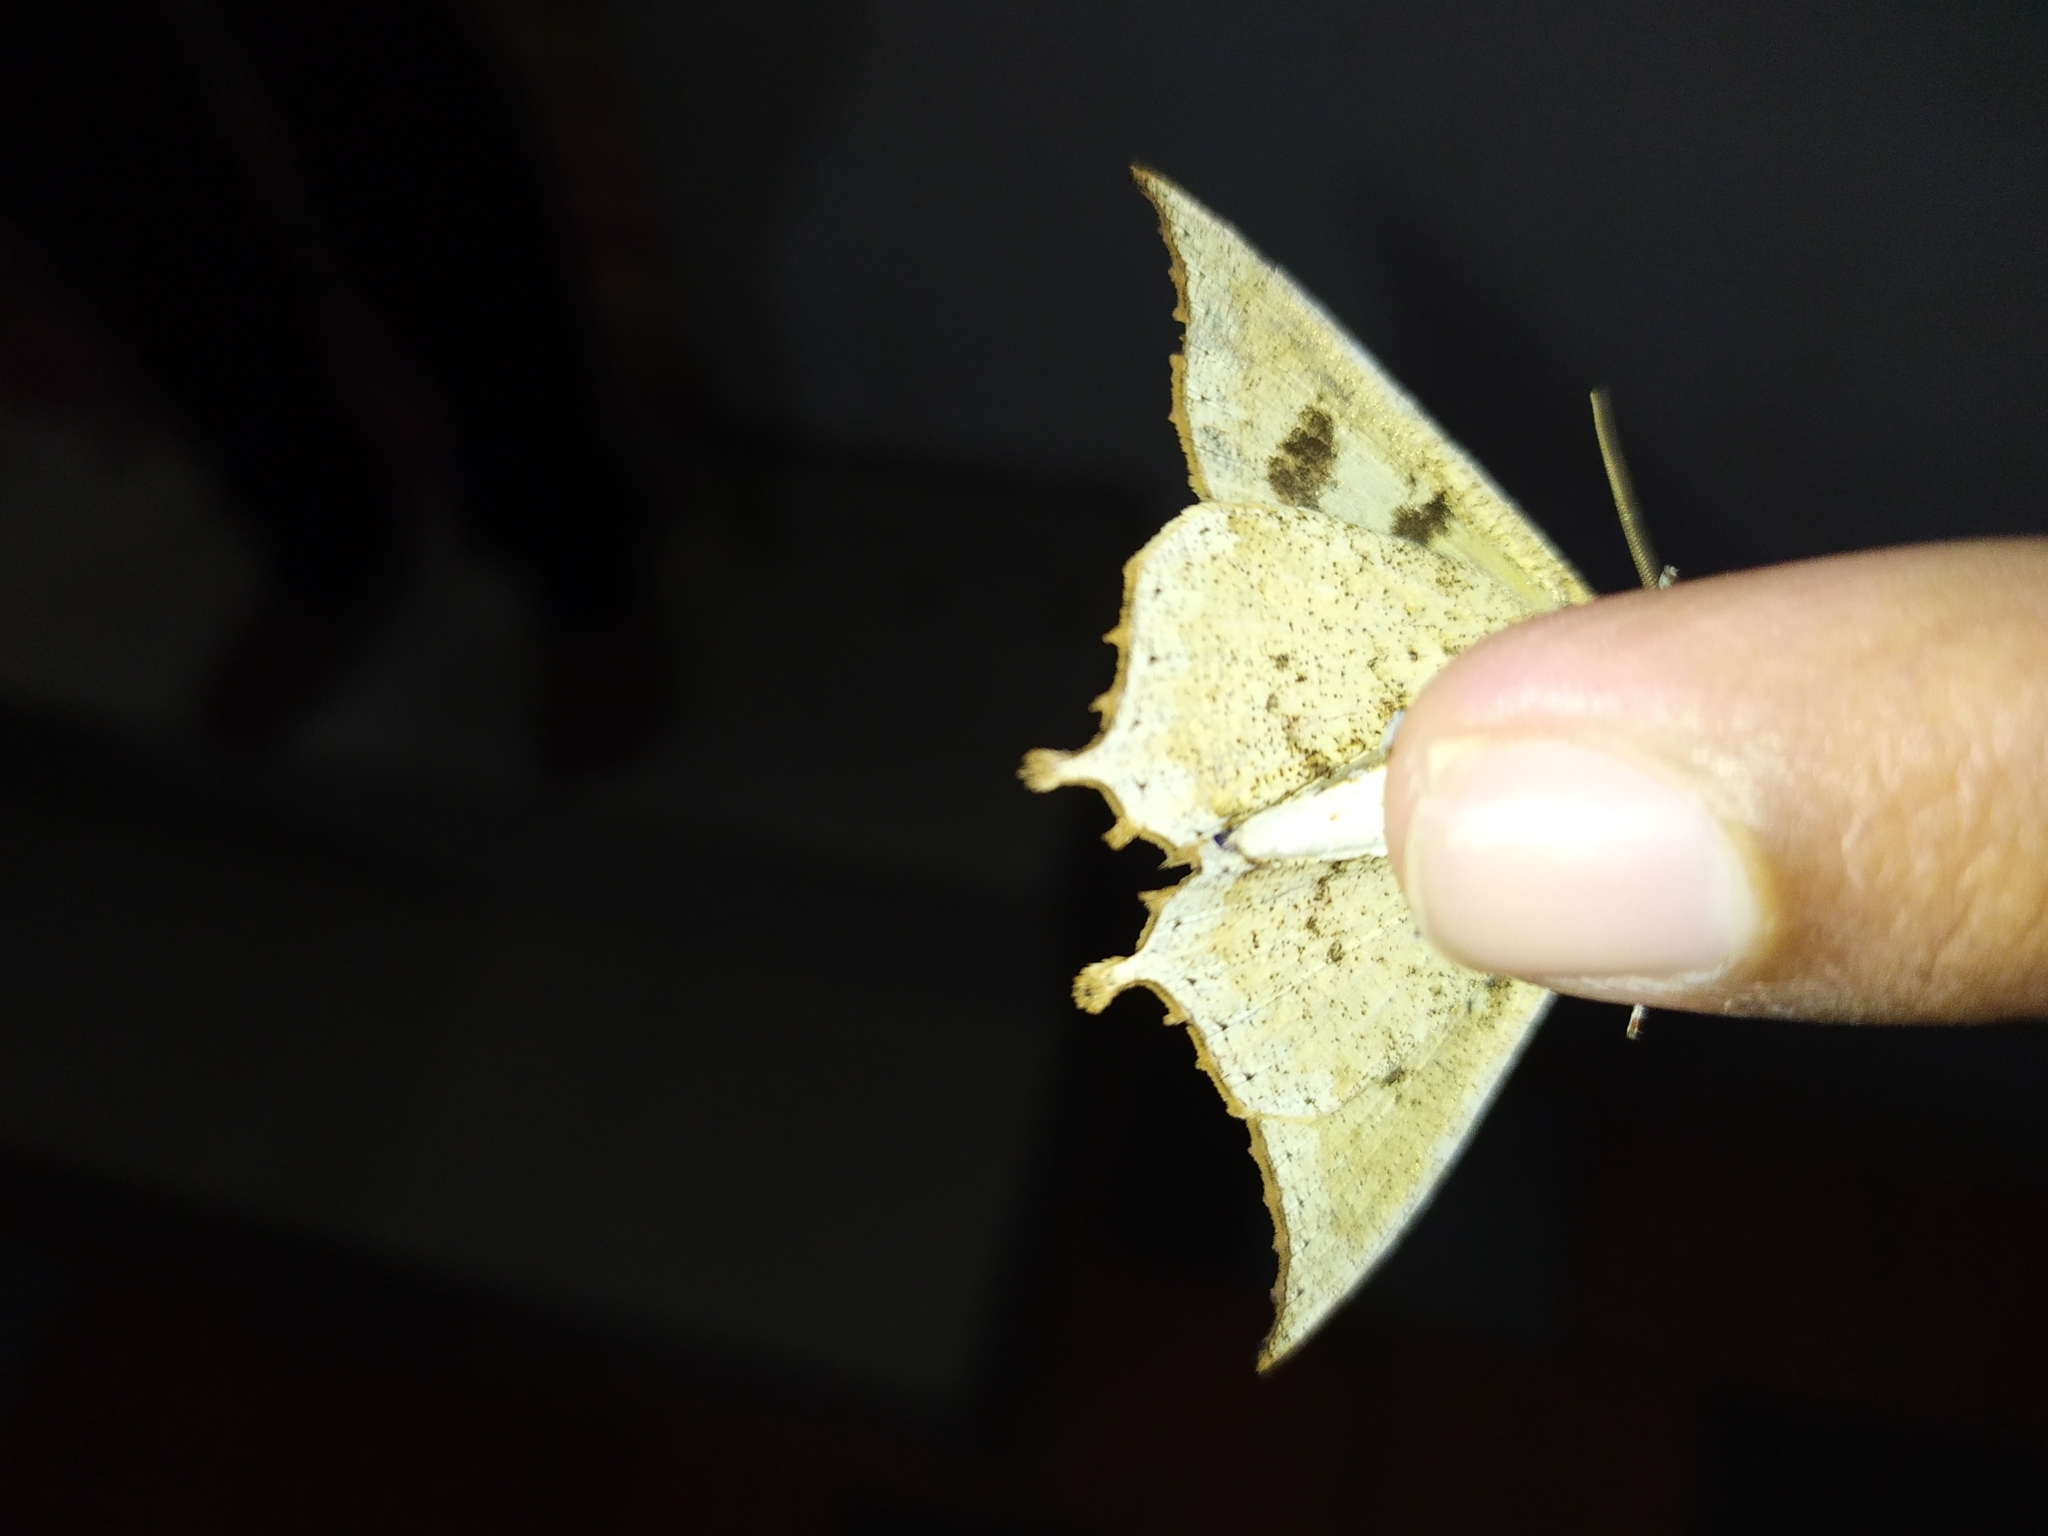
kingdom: Animalia
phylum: Arthropoda
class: Insecta
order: Lepidoptera
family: Erebidae
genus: Pterocyclophora
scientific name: Pterocyclophora pictimargo
